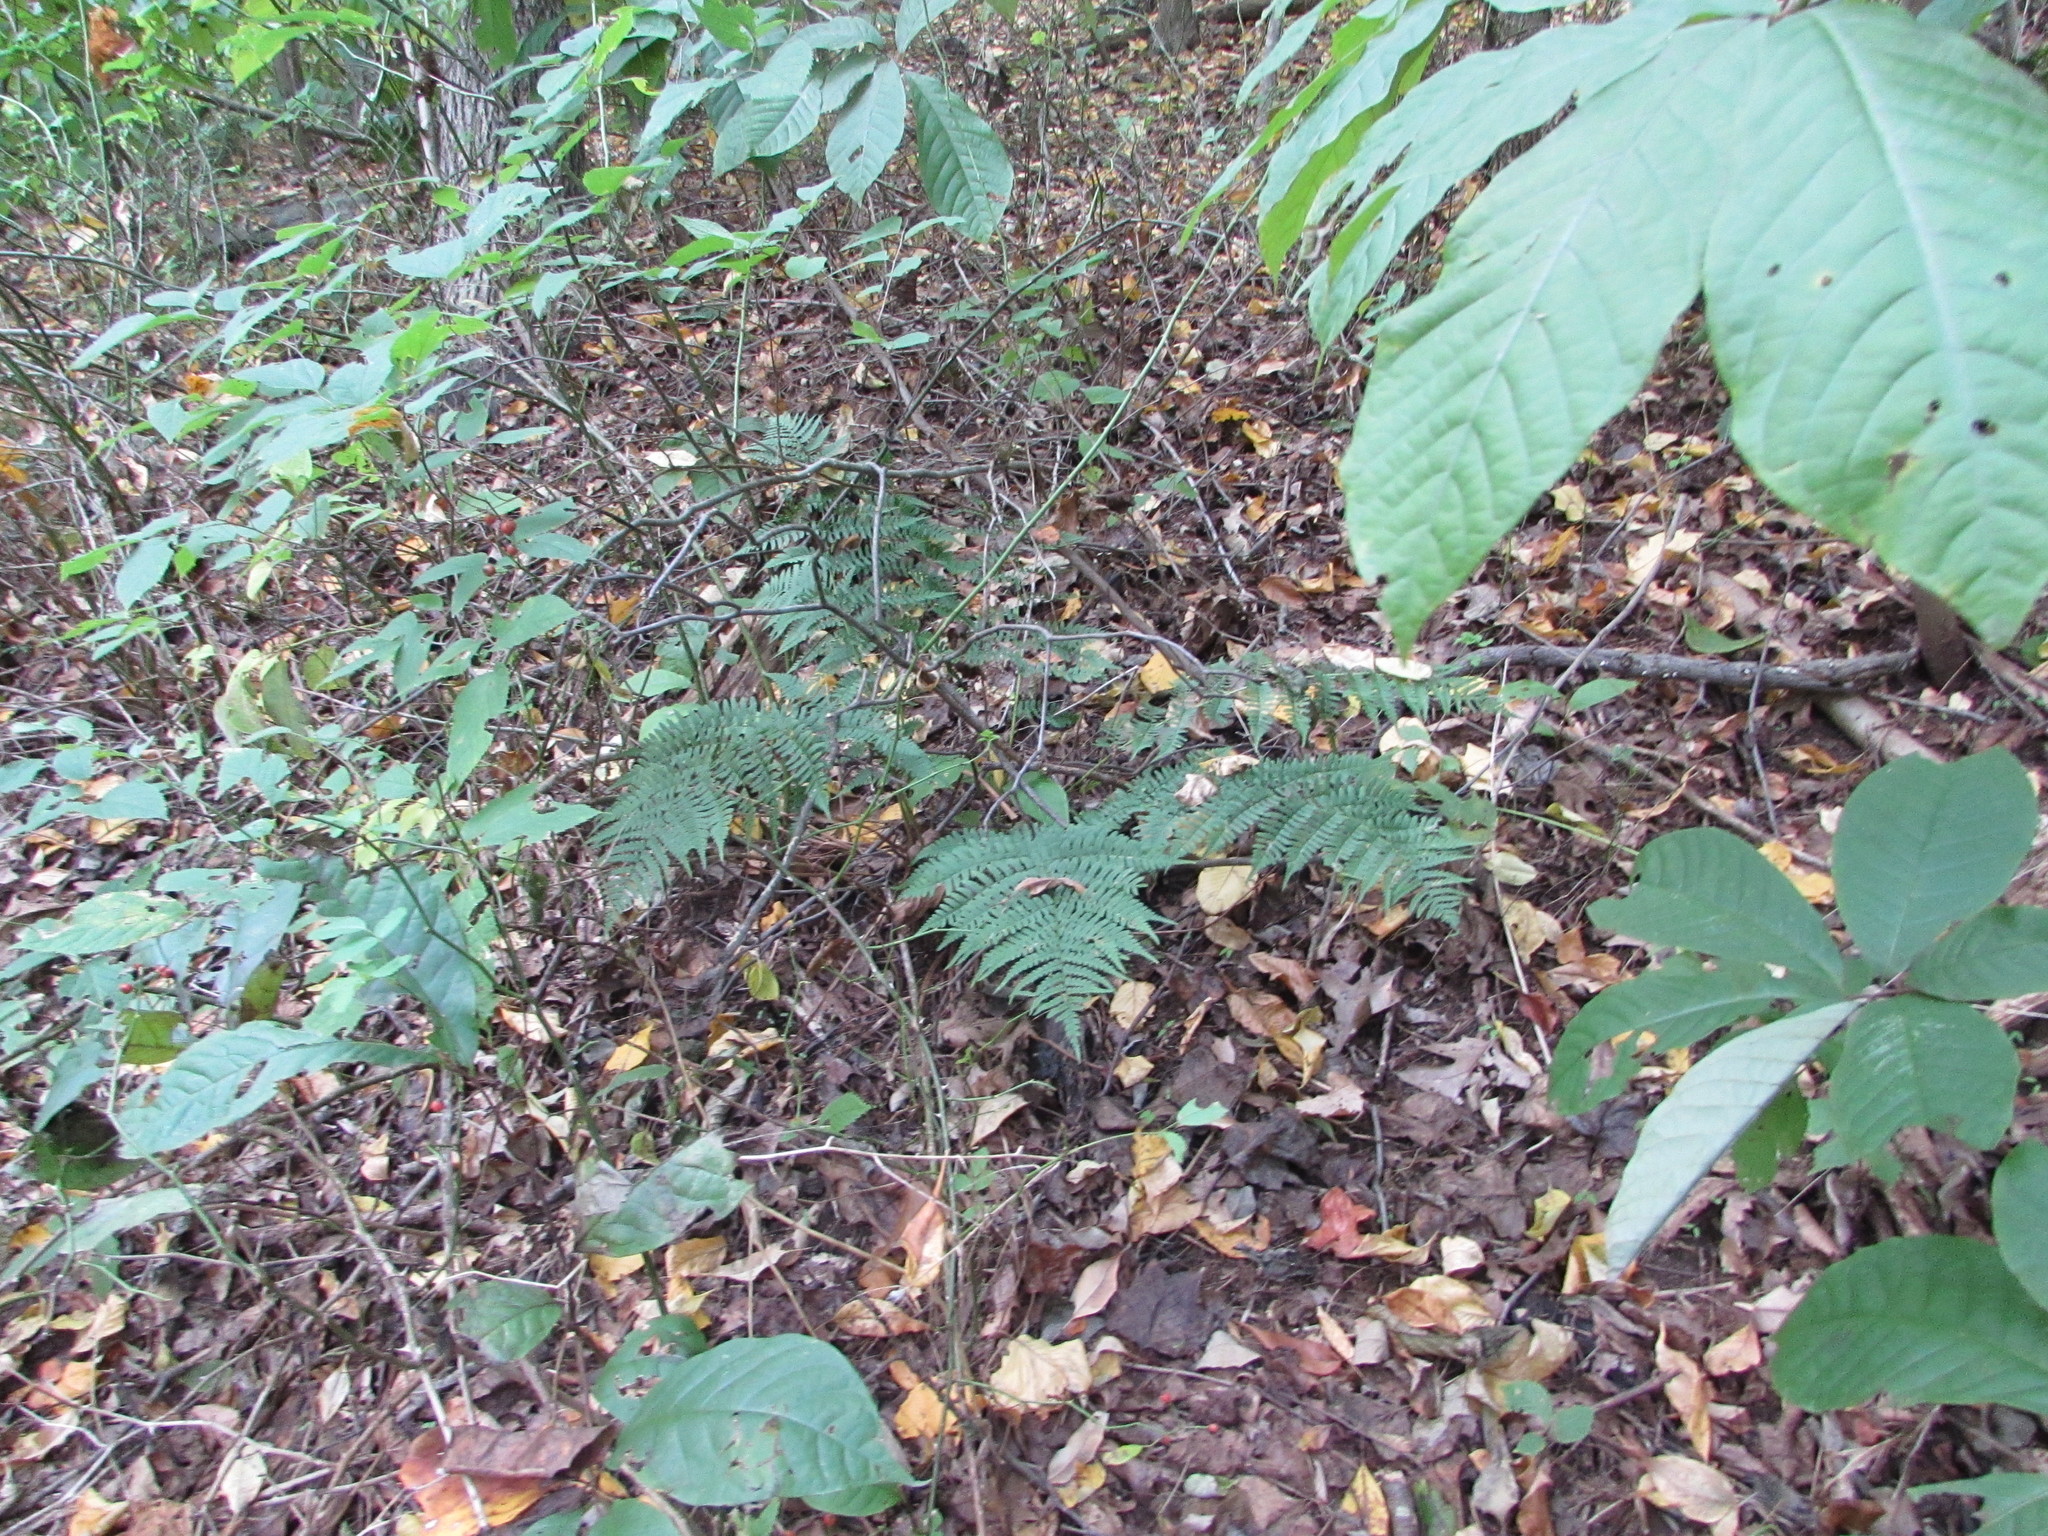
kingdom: Plantae
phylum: Tracheophyta
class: Polypodiopsida
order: Polypodiales
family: Dryopteridaceae
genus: Dryopteris
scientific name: Dryopteris marginalis
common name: Marginal wood fern
